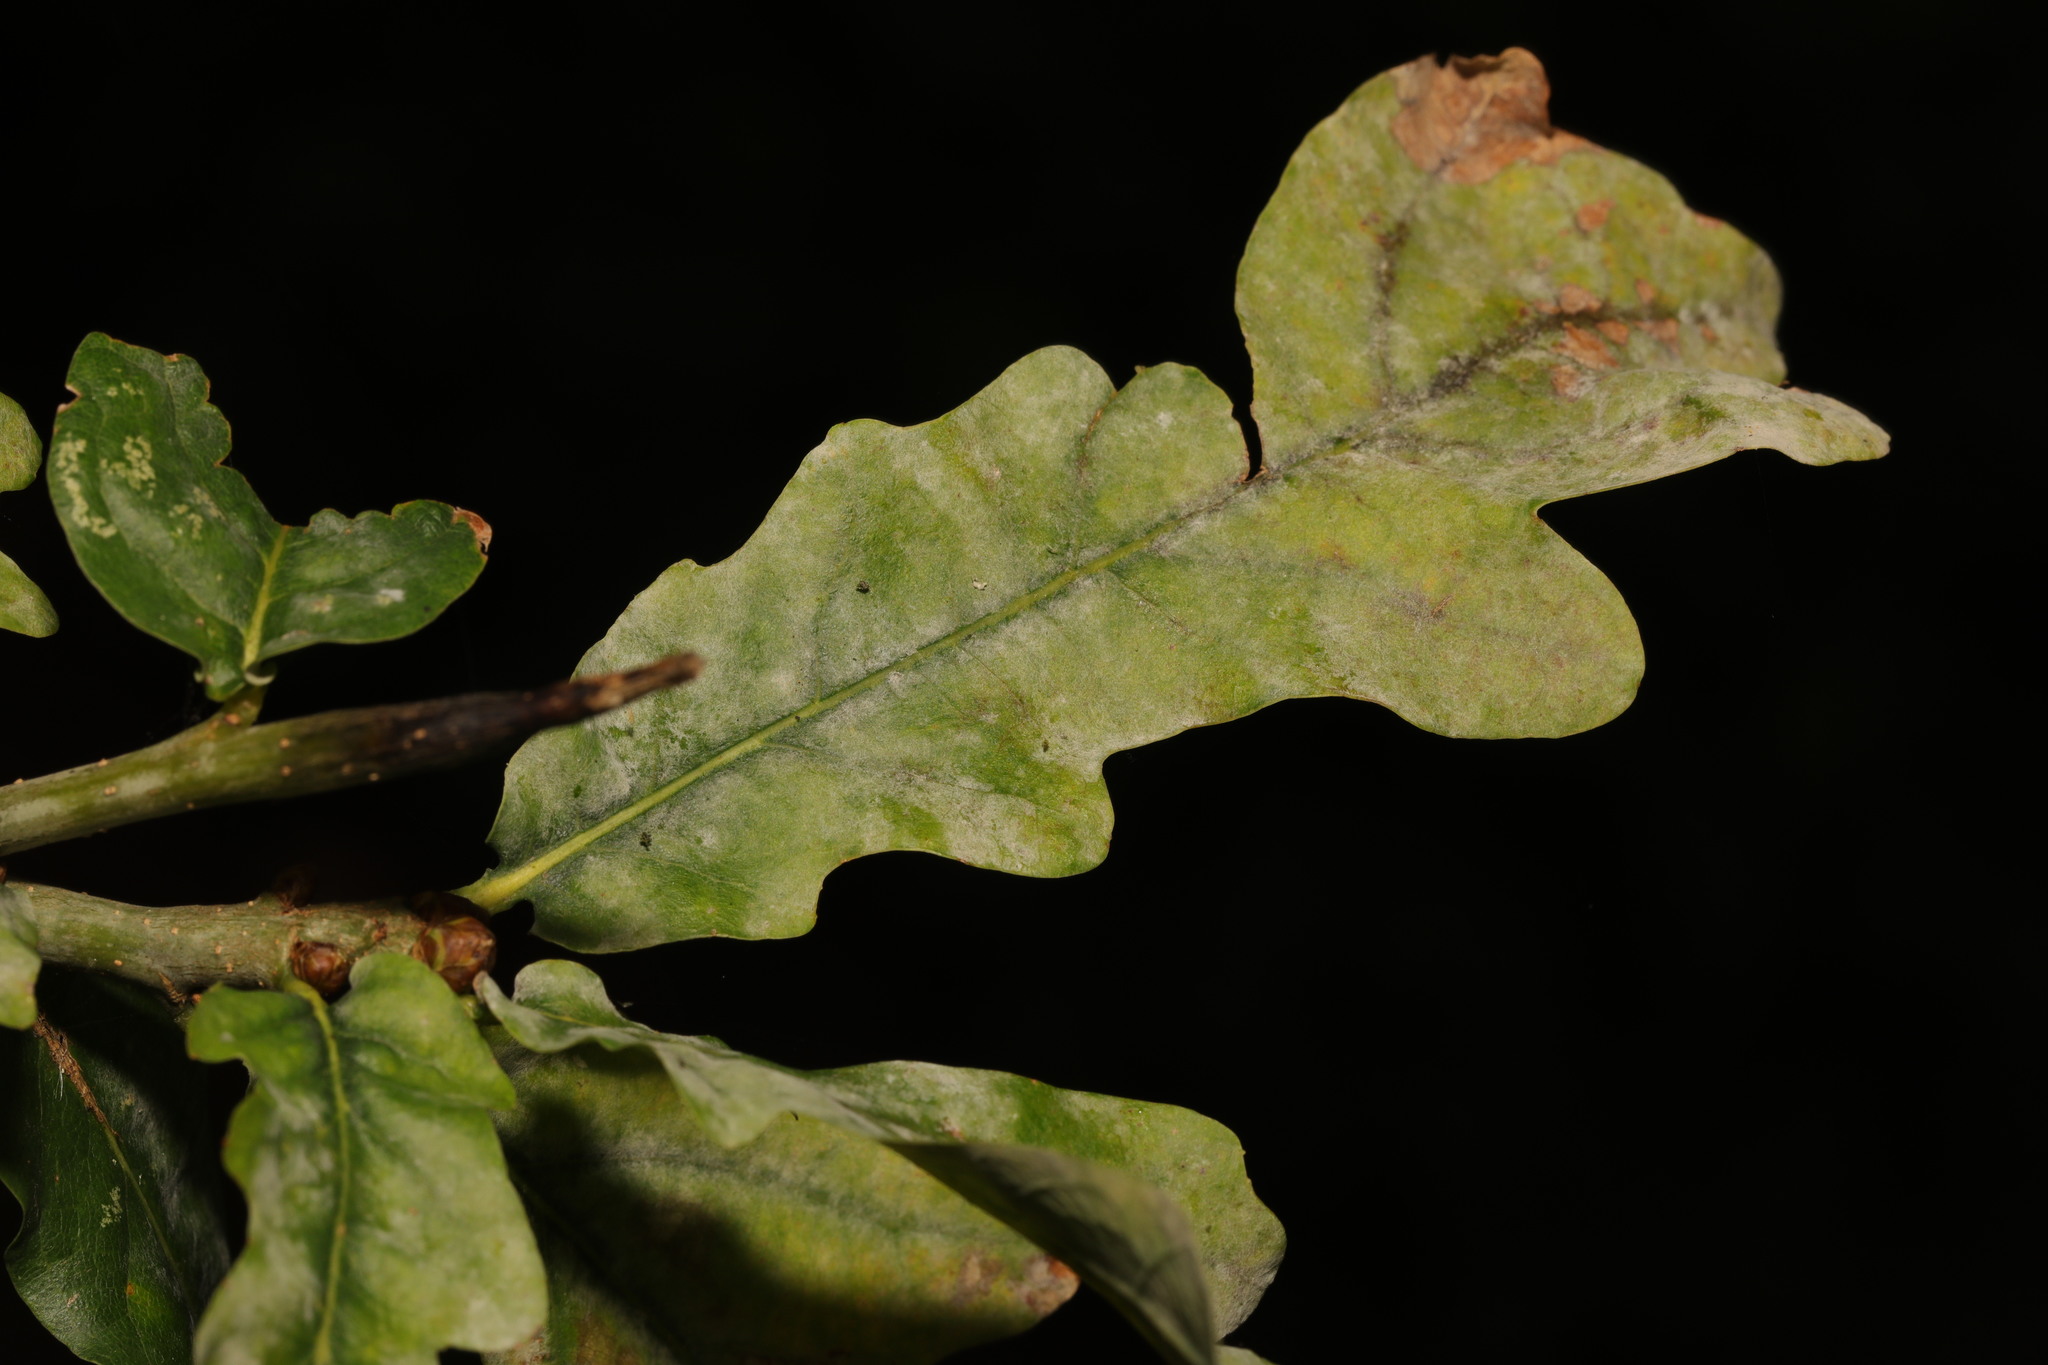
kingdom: Fungi
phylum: Ascomycota
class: Leotiomycetes
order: Helotiales
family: Erysiphaceae
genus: Erysiphe
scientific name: Erysiphe alphitoides
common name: Oak mildew
